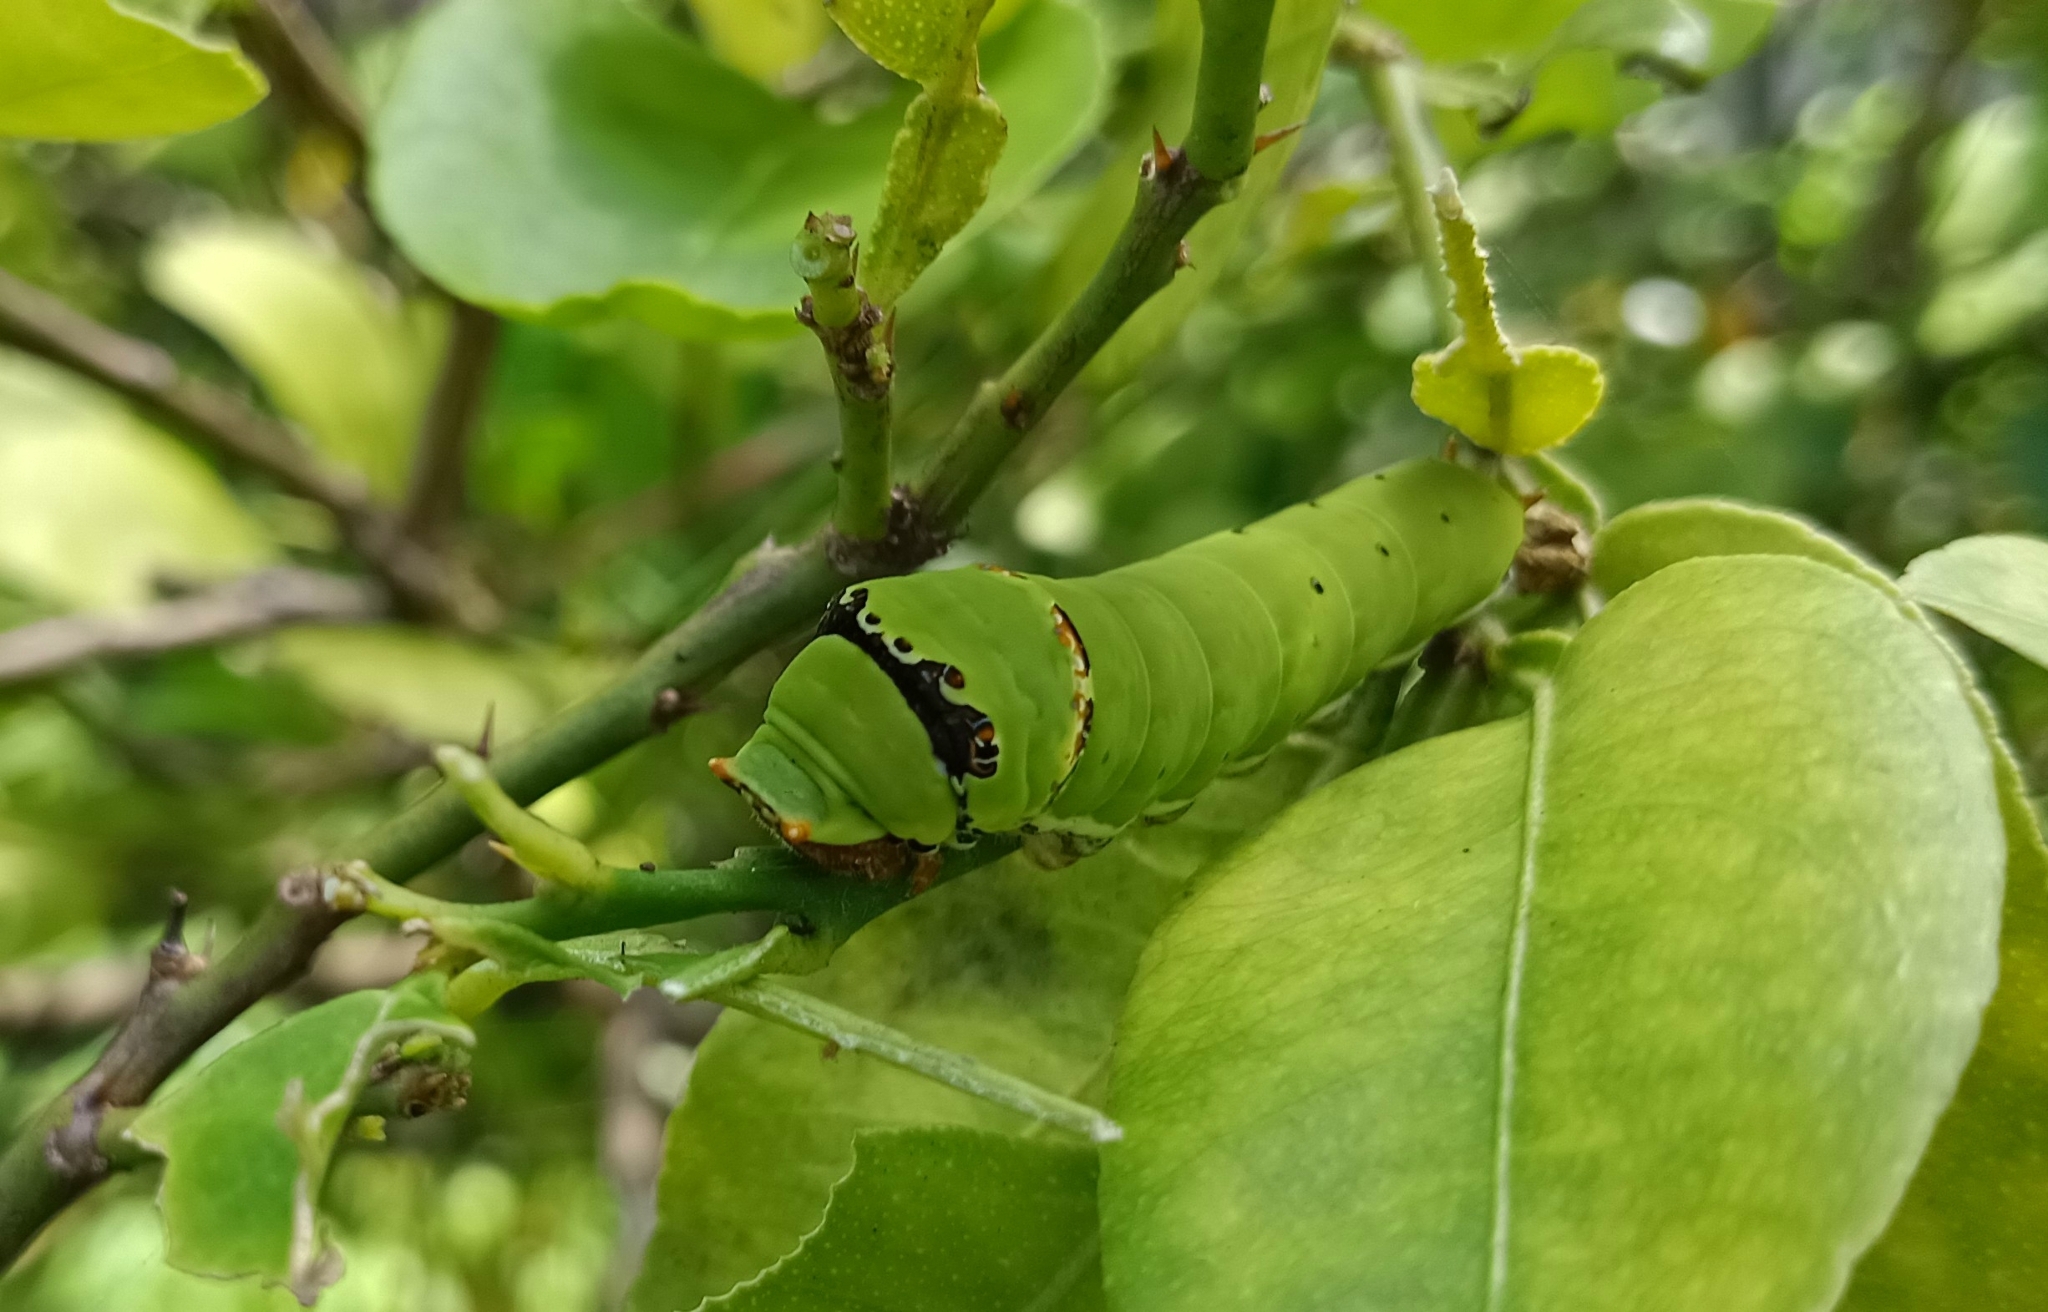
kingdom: Animalia
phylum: Arthropoda
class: Insecta
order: Lepidoptera
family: Papilionidae
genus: Papilio
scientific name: Papilio demoleus
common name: Lime butterfly
